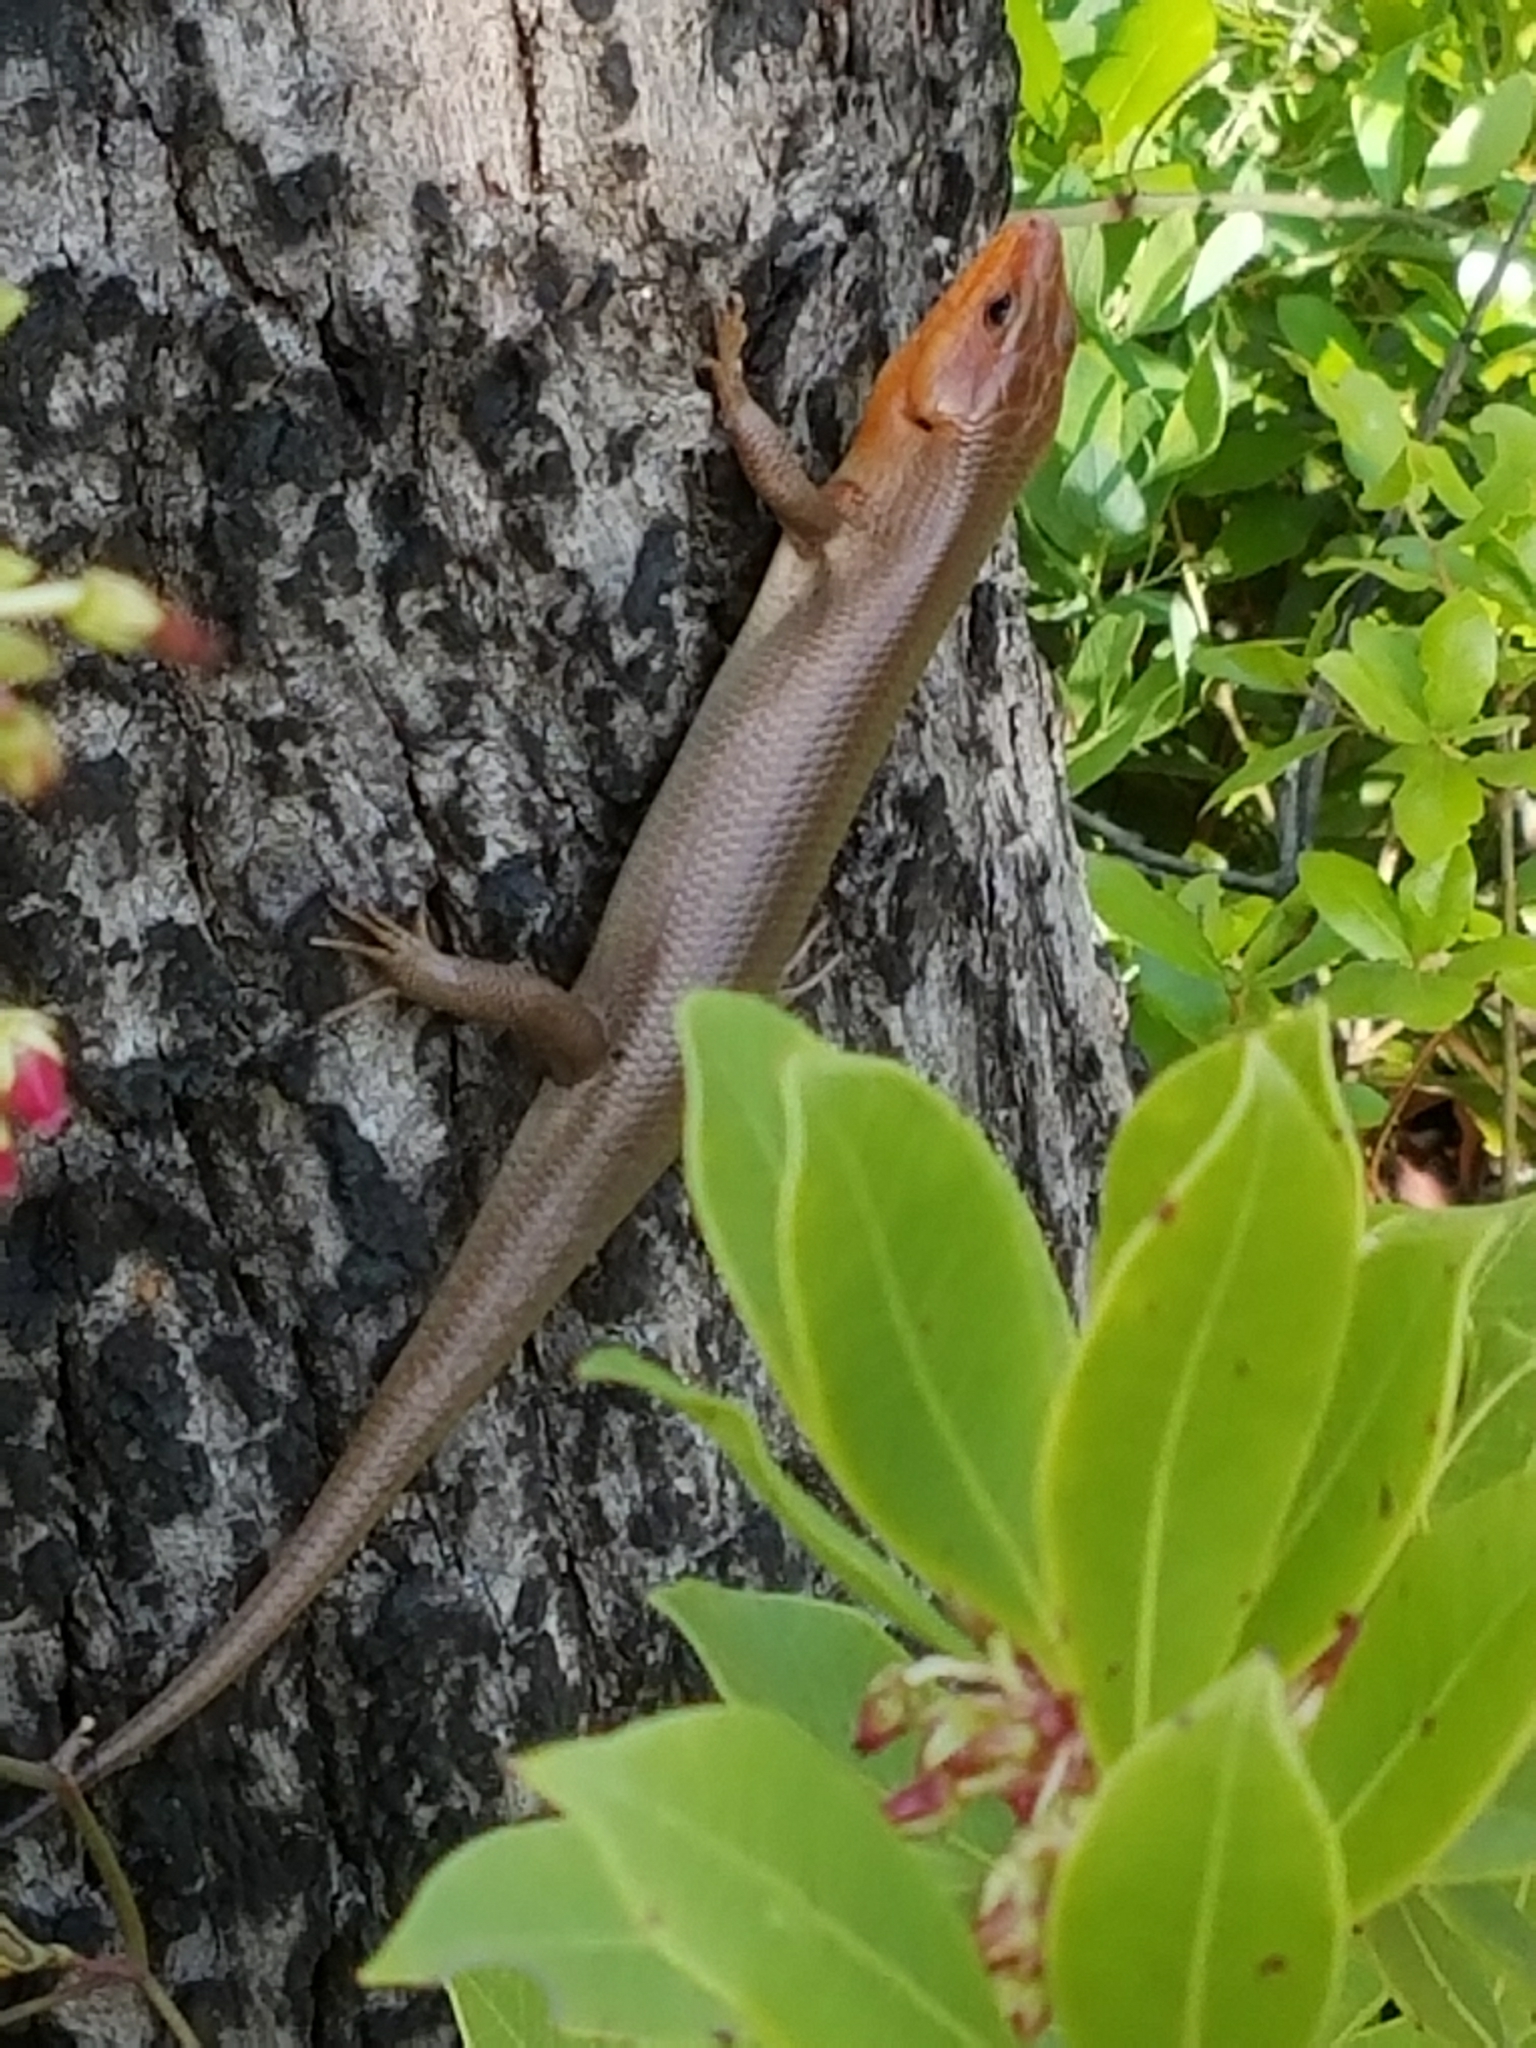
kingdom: Animalia
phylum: Chordata
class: Squamata
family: Scincidae
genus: Plestiodon
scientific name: Plestiodon laticeps
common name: Broadhead skink
